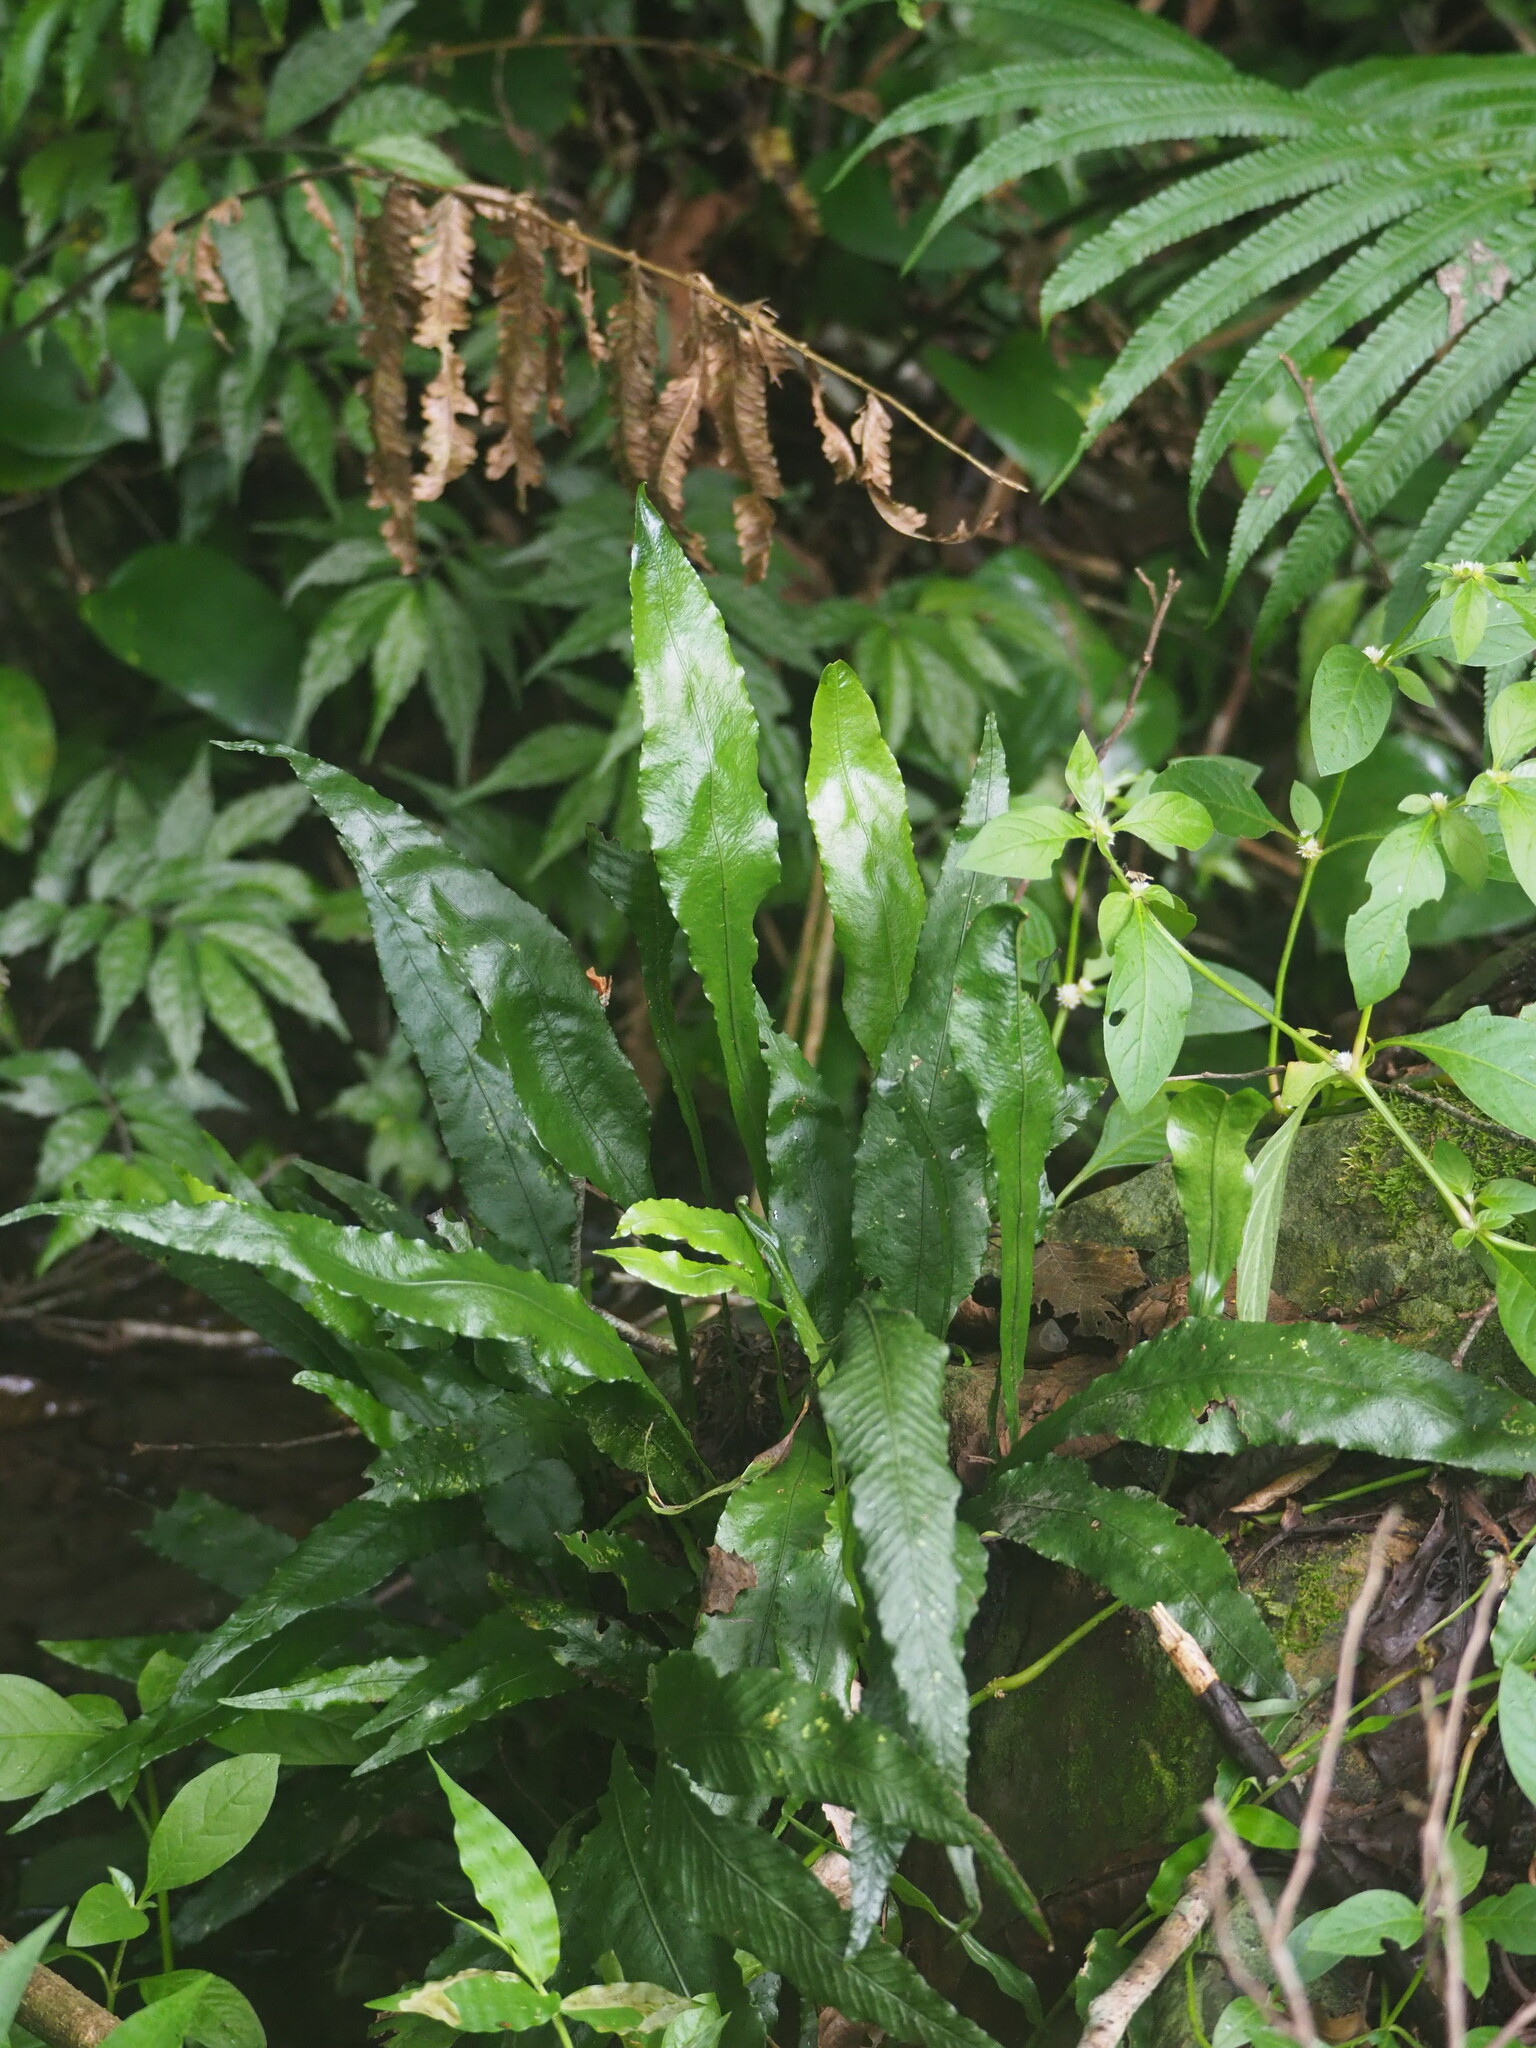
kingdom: Plantae
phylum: Tracheophyta
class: Polypodiopsida
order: Polypodiales
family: Polypodiaceae
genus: Leptochilus
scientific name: Leptochilus wrightii
